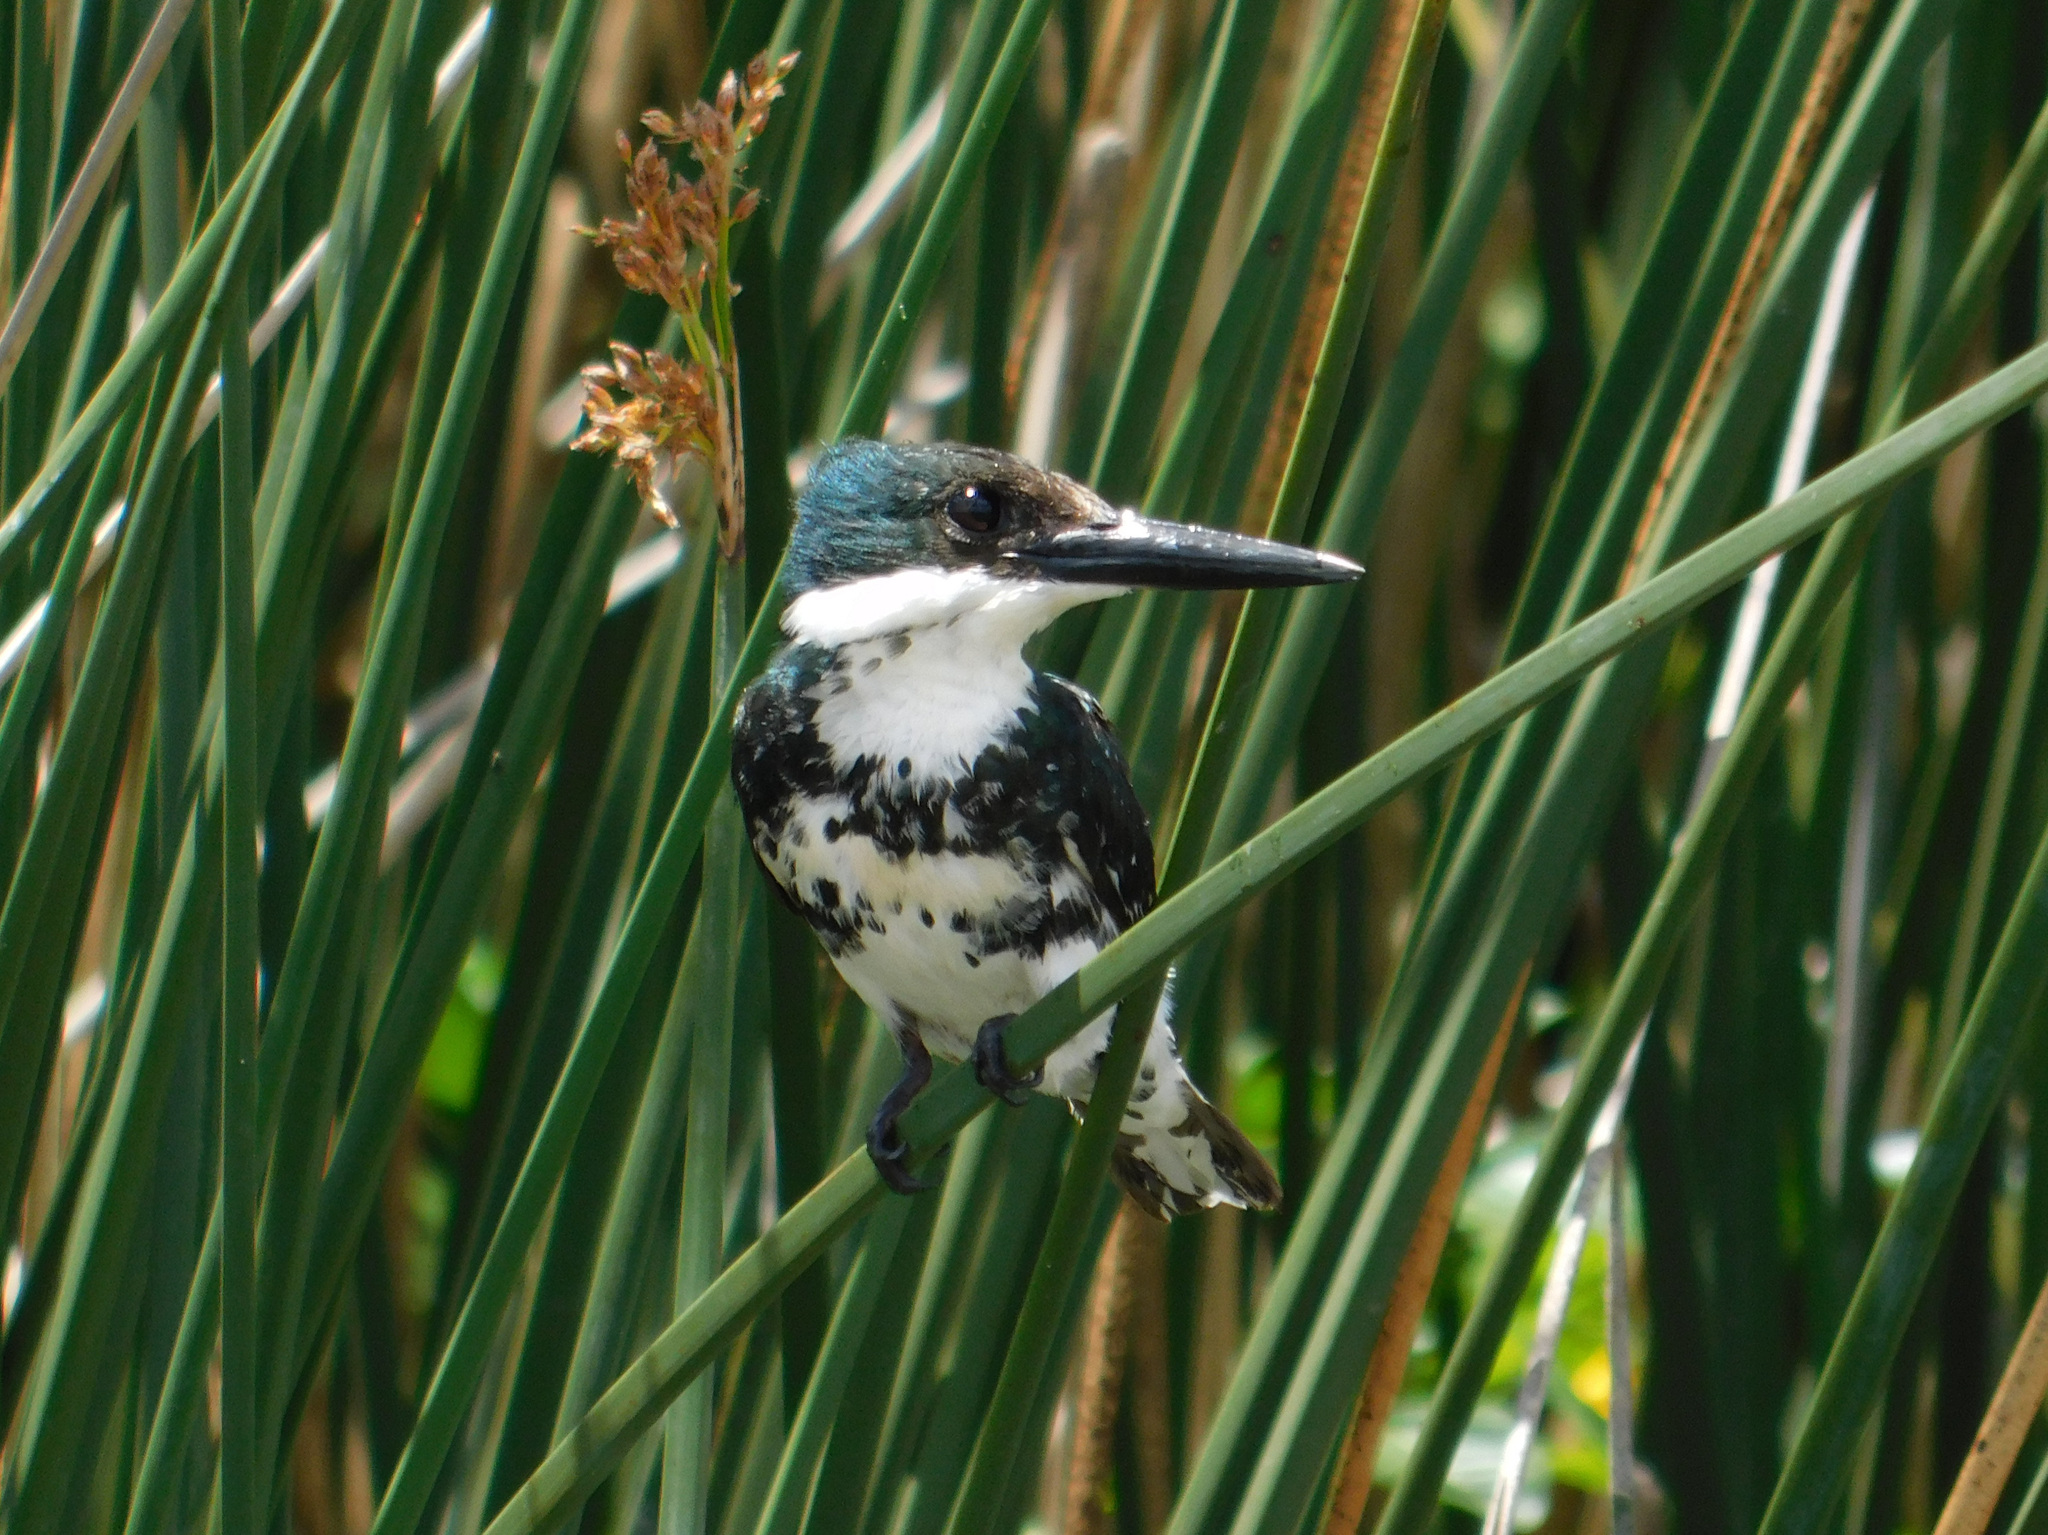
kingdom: Animalia
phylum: Chordata
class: Aves
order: Coraciiformes
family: Alcedinidae
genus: Chloroceryle
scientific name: Chloroceryle americana
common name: Green kingfisher
